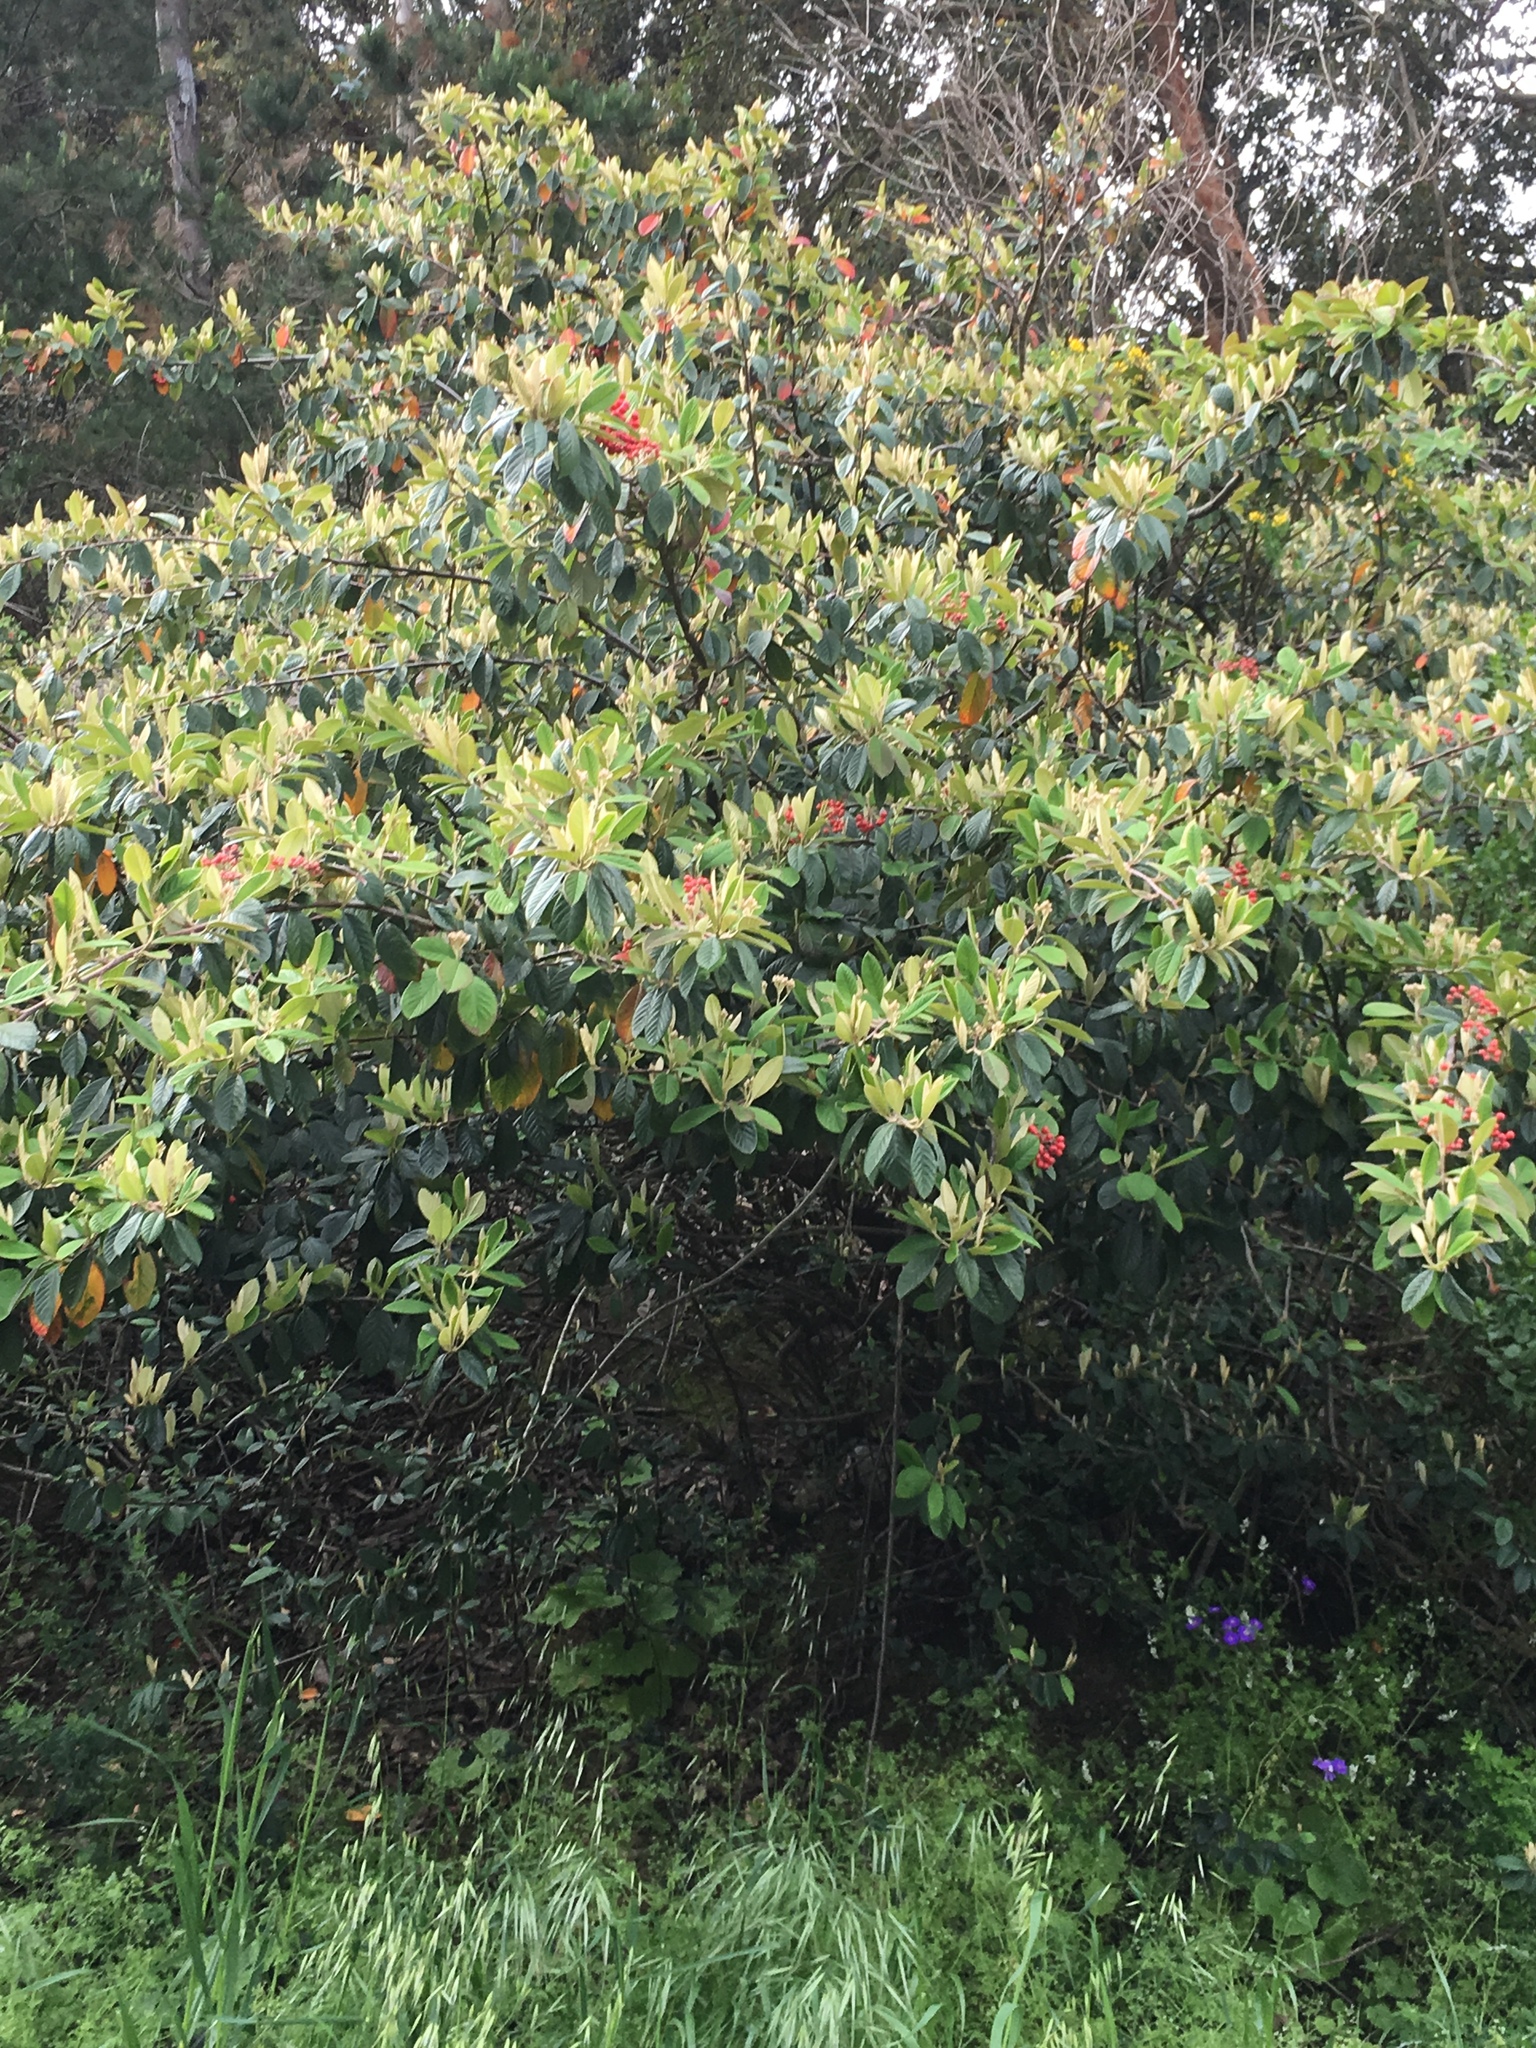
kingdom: Plantae
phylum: Tracheophyta
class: Magnoliopsida
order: Rosales
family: Rosaceae
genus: Cotoneaster
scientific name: Cotoneaster coriaceus
